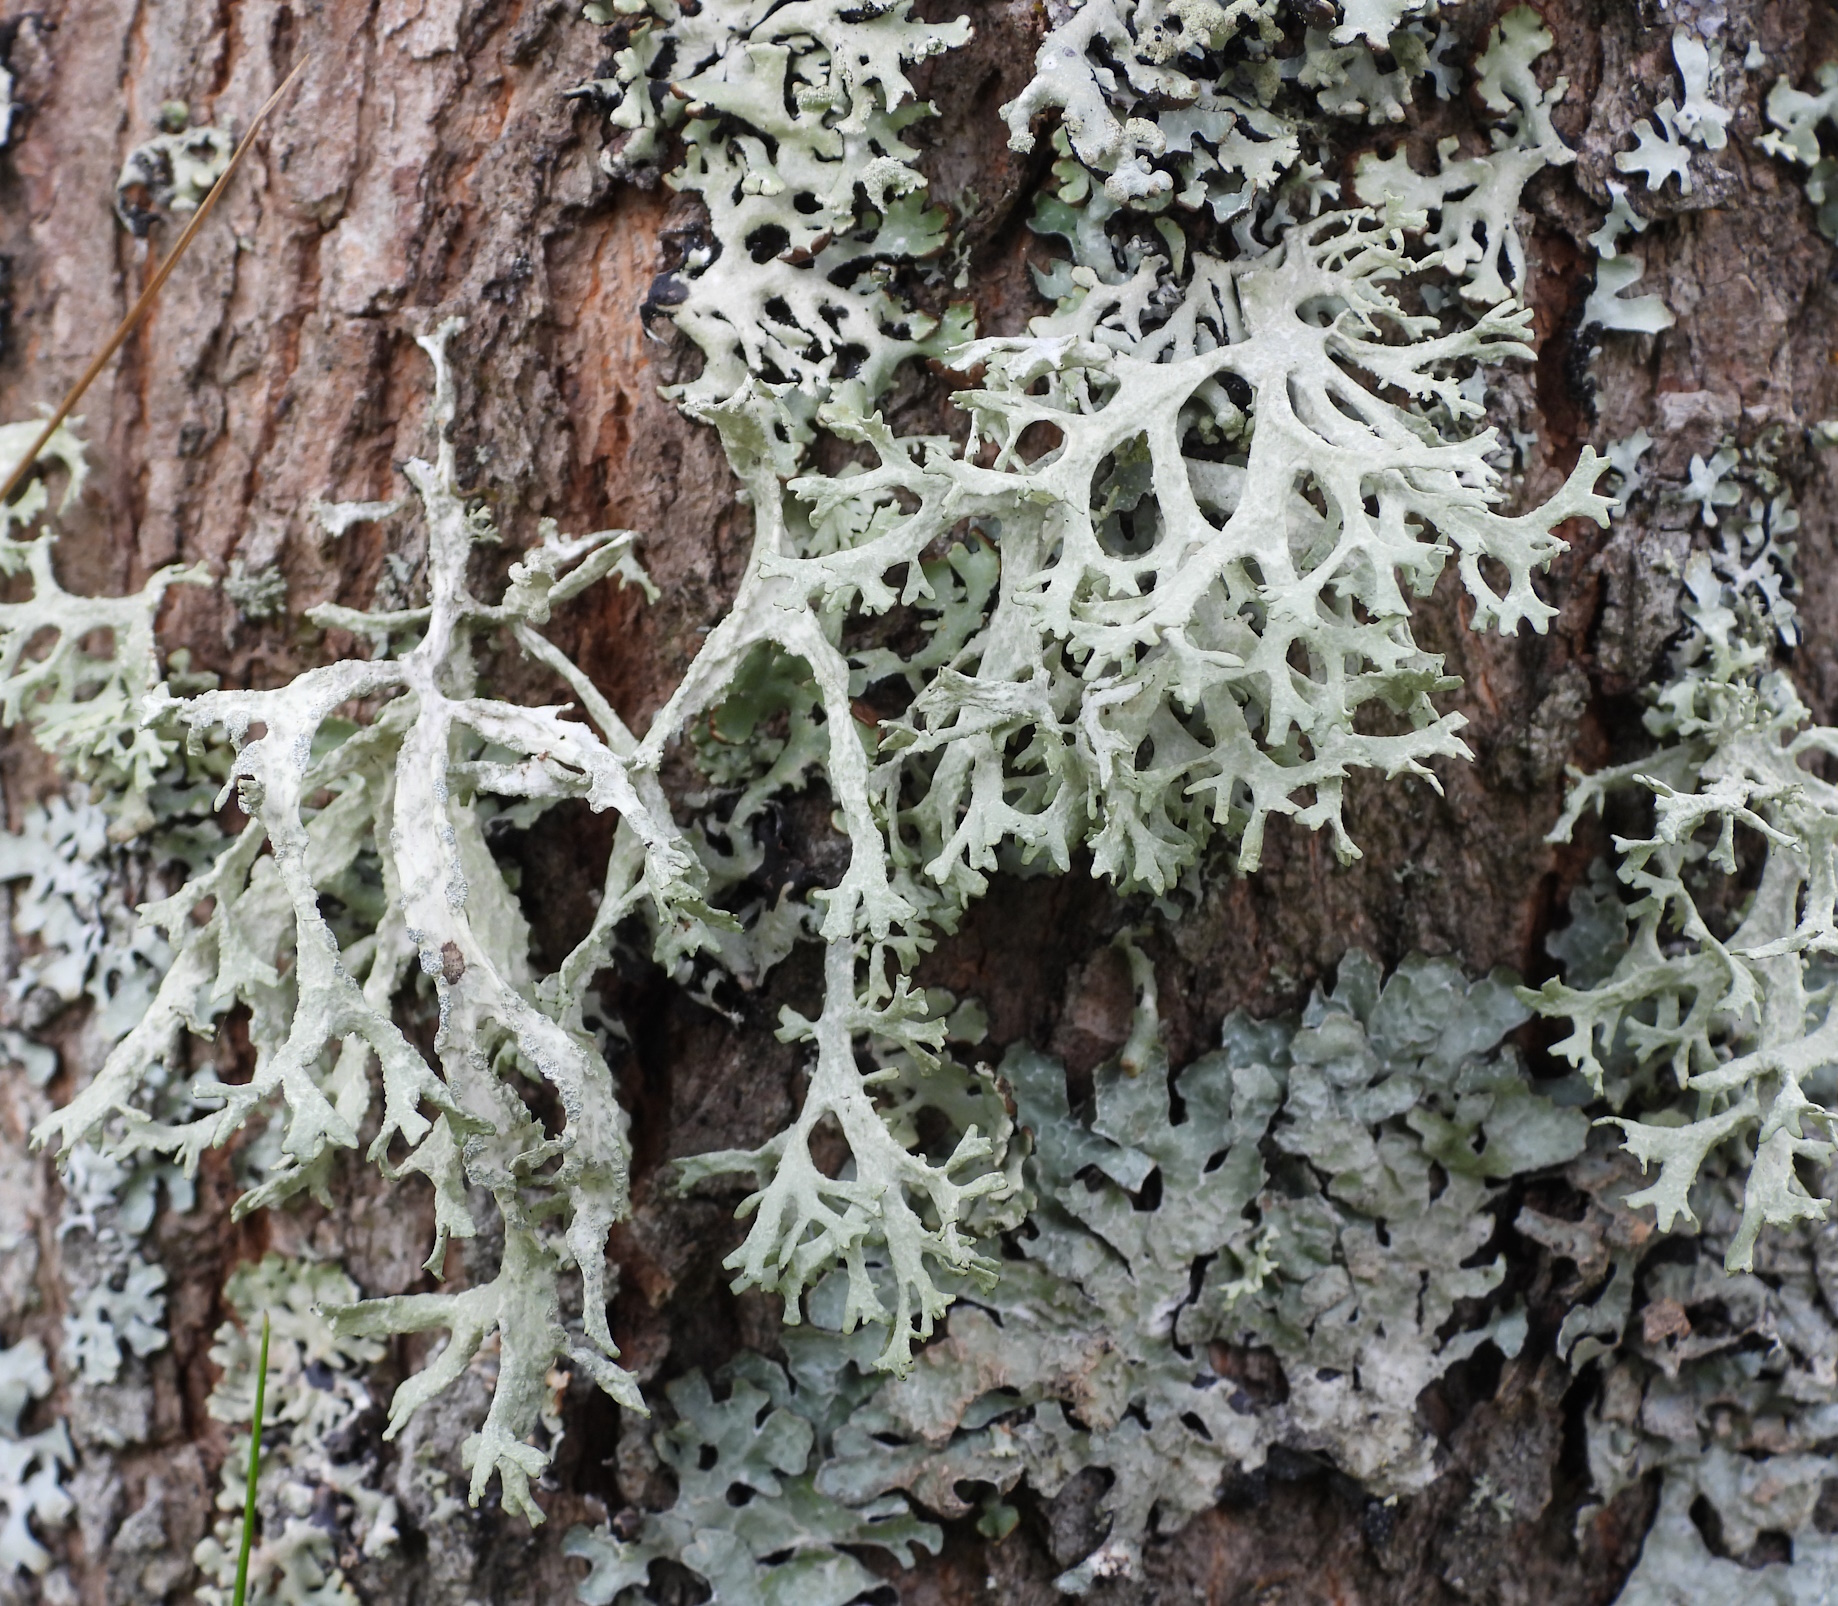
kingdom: Fungi
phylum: Ascomycota
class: Lecanoromycetes
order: Lecanorales
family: Parmeliaceae
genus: Evernia
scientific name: Evernia prunastri
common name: Oak moss
